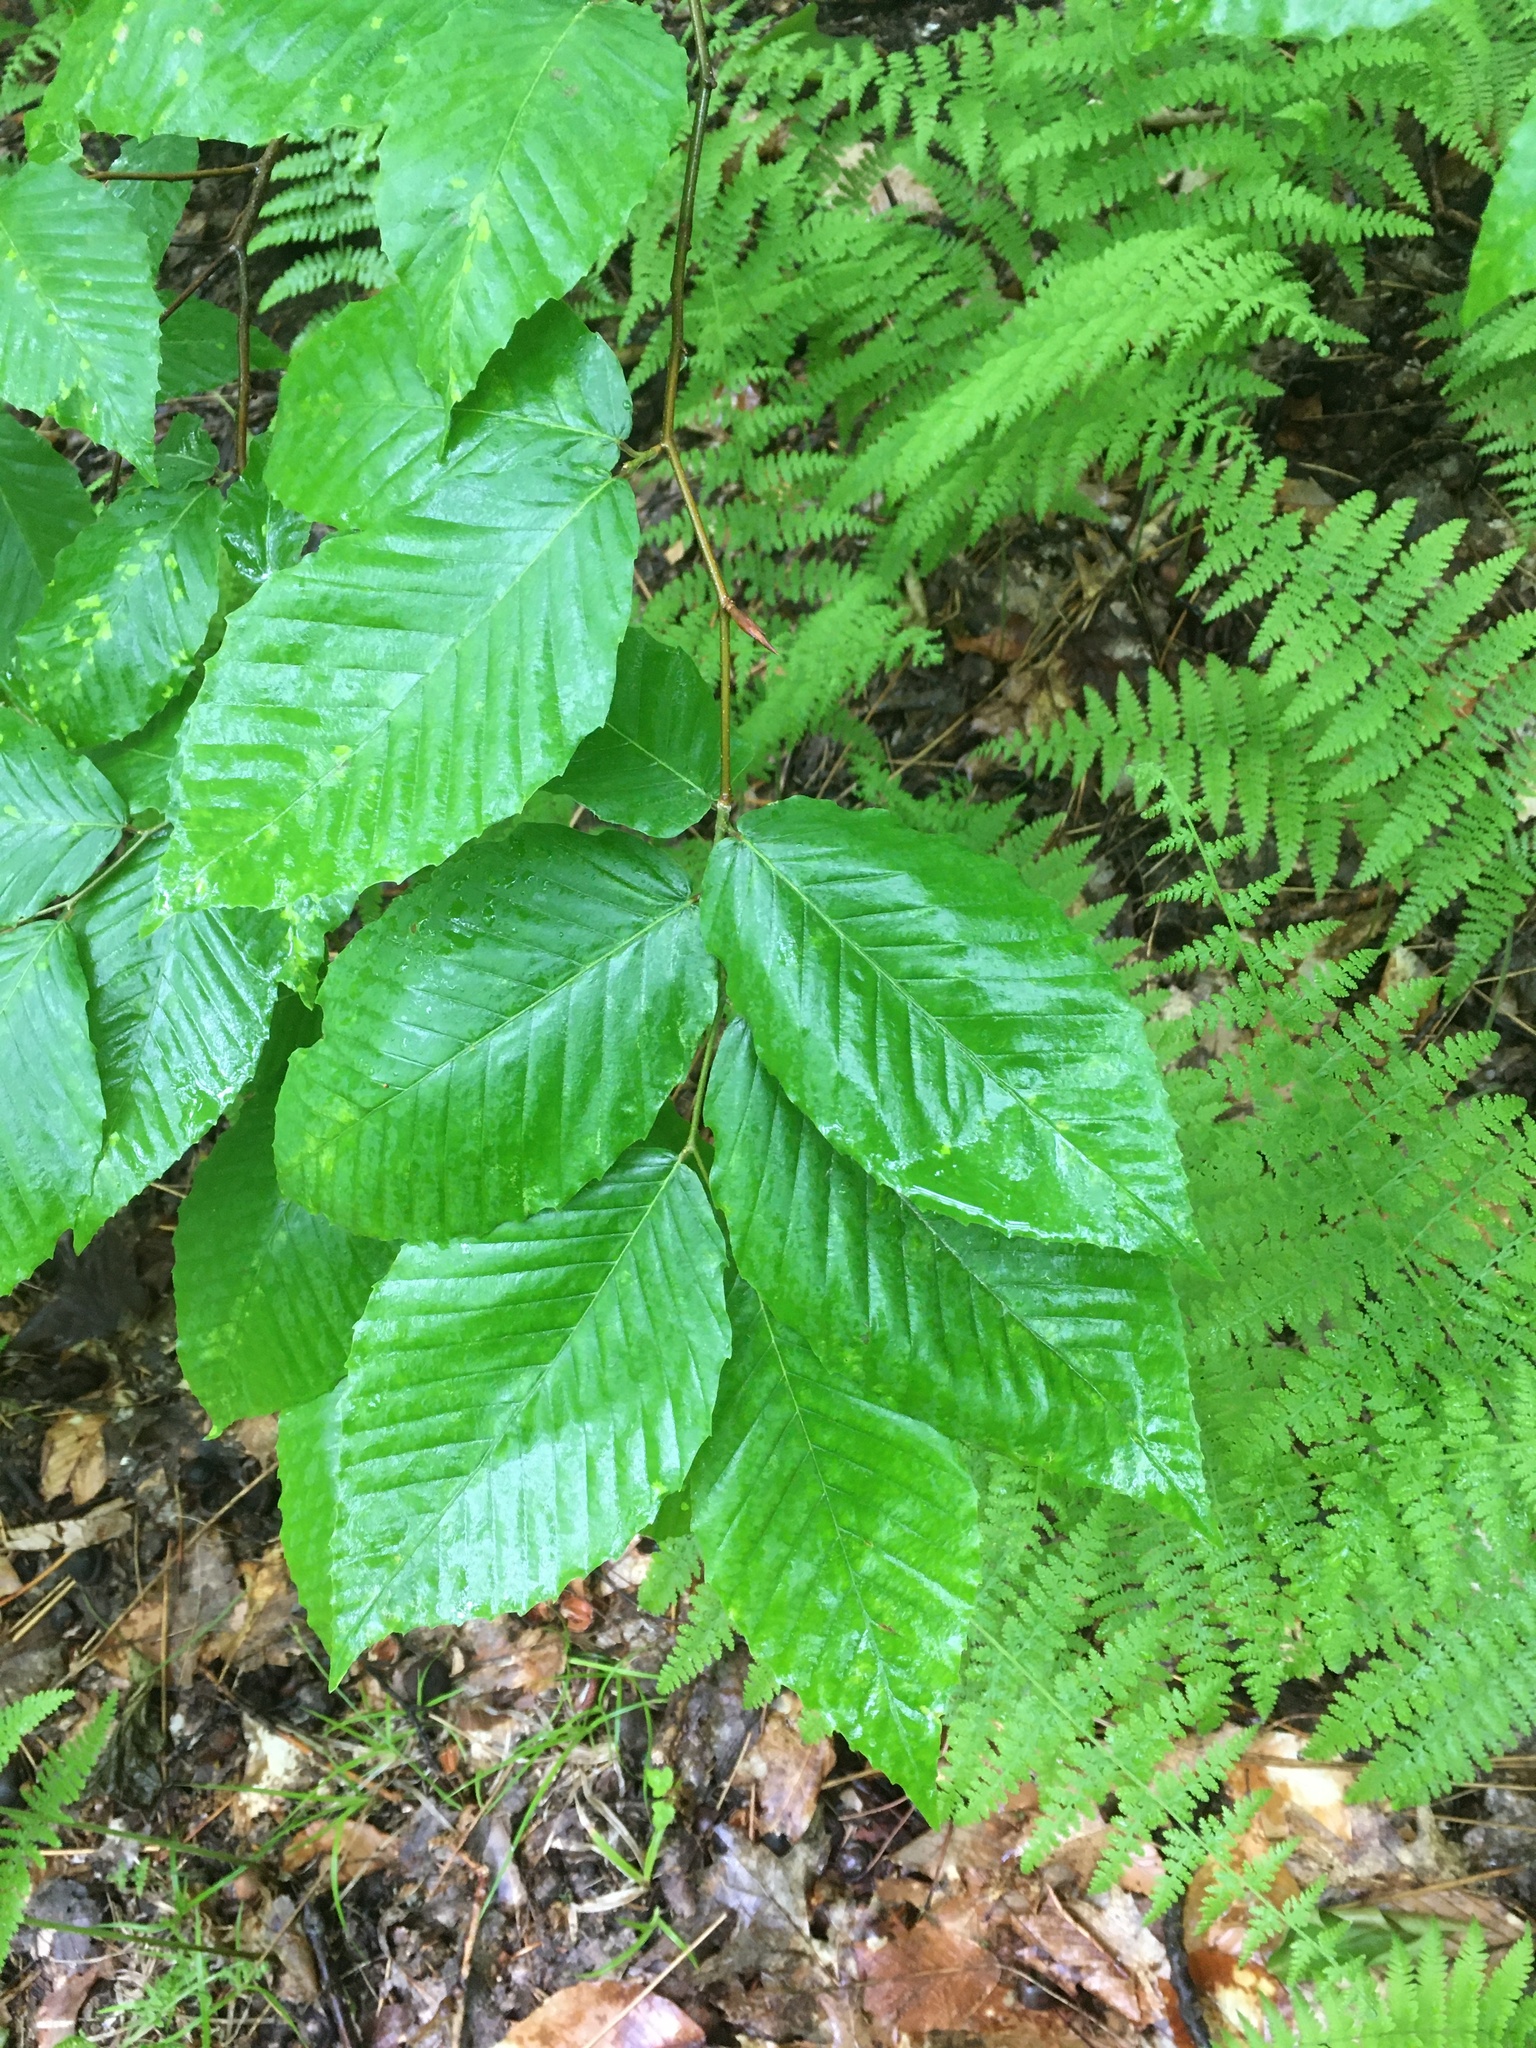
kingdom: Plantae
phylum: Tracheophyta
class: Magnoliopsida
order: Fagales
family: Fagaceae
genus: Fagus
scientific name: Fagus grandifolia
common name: American beech
